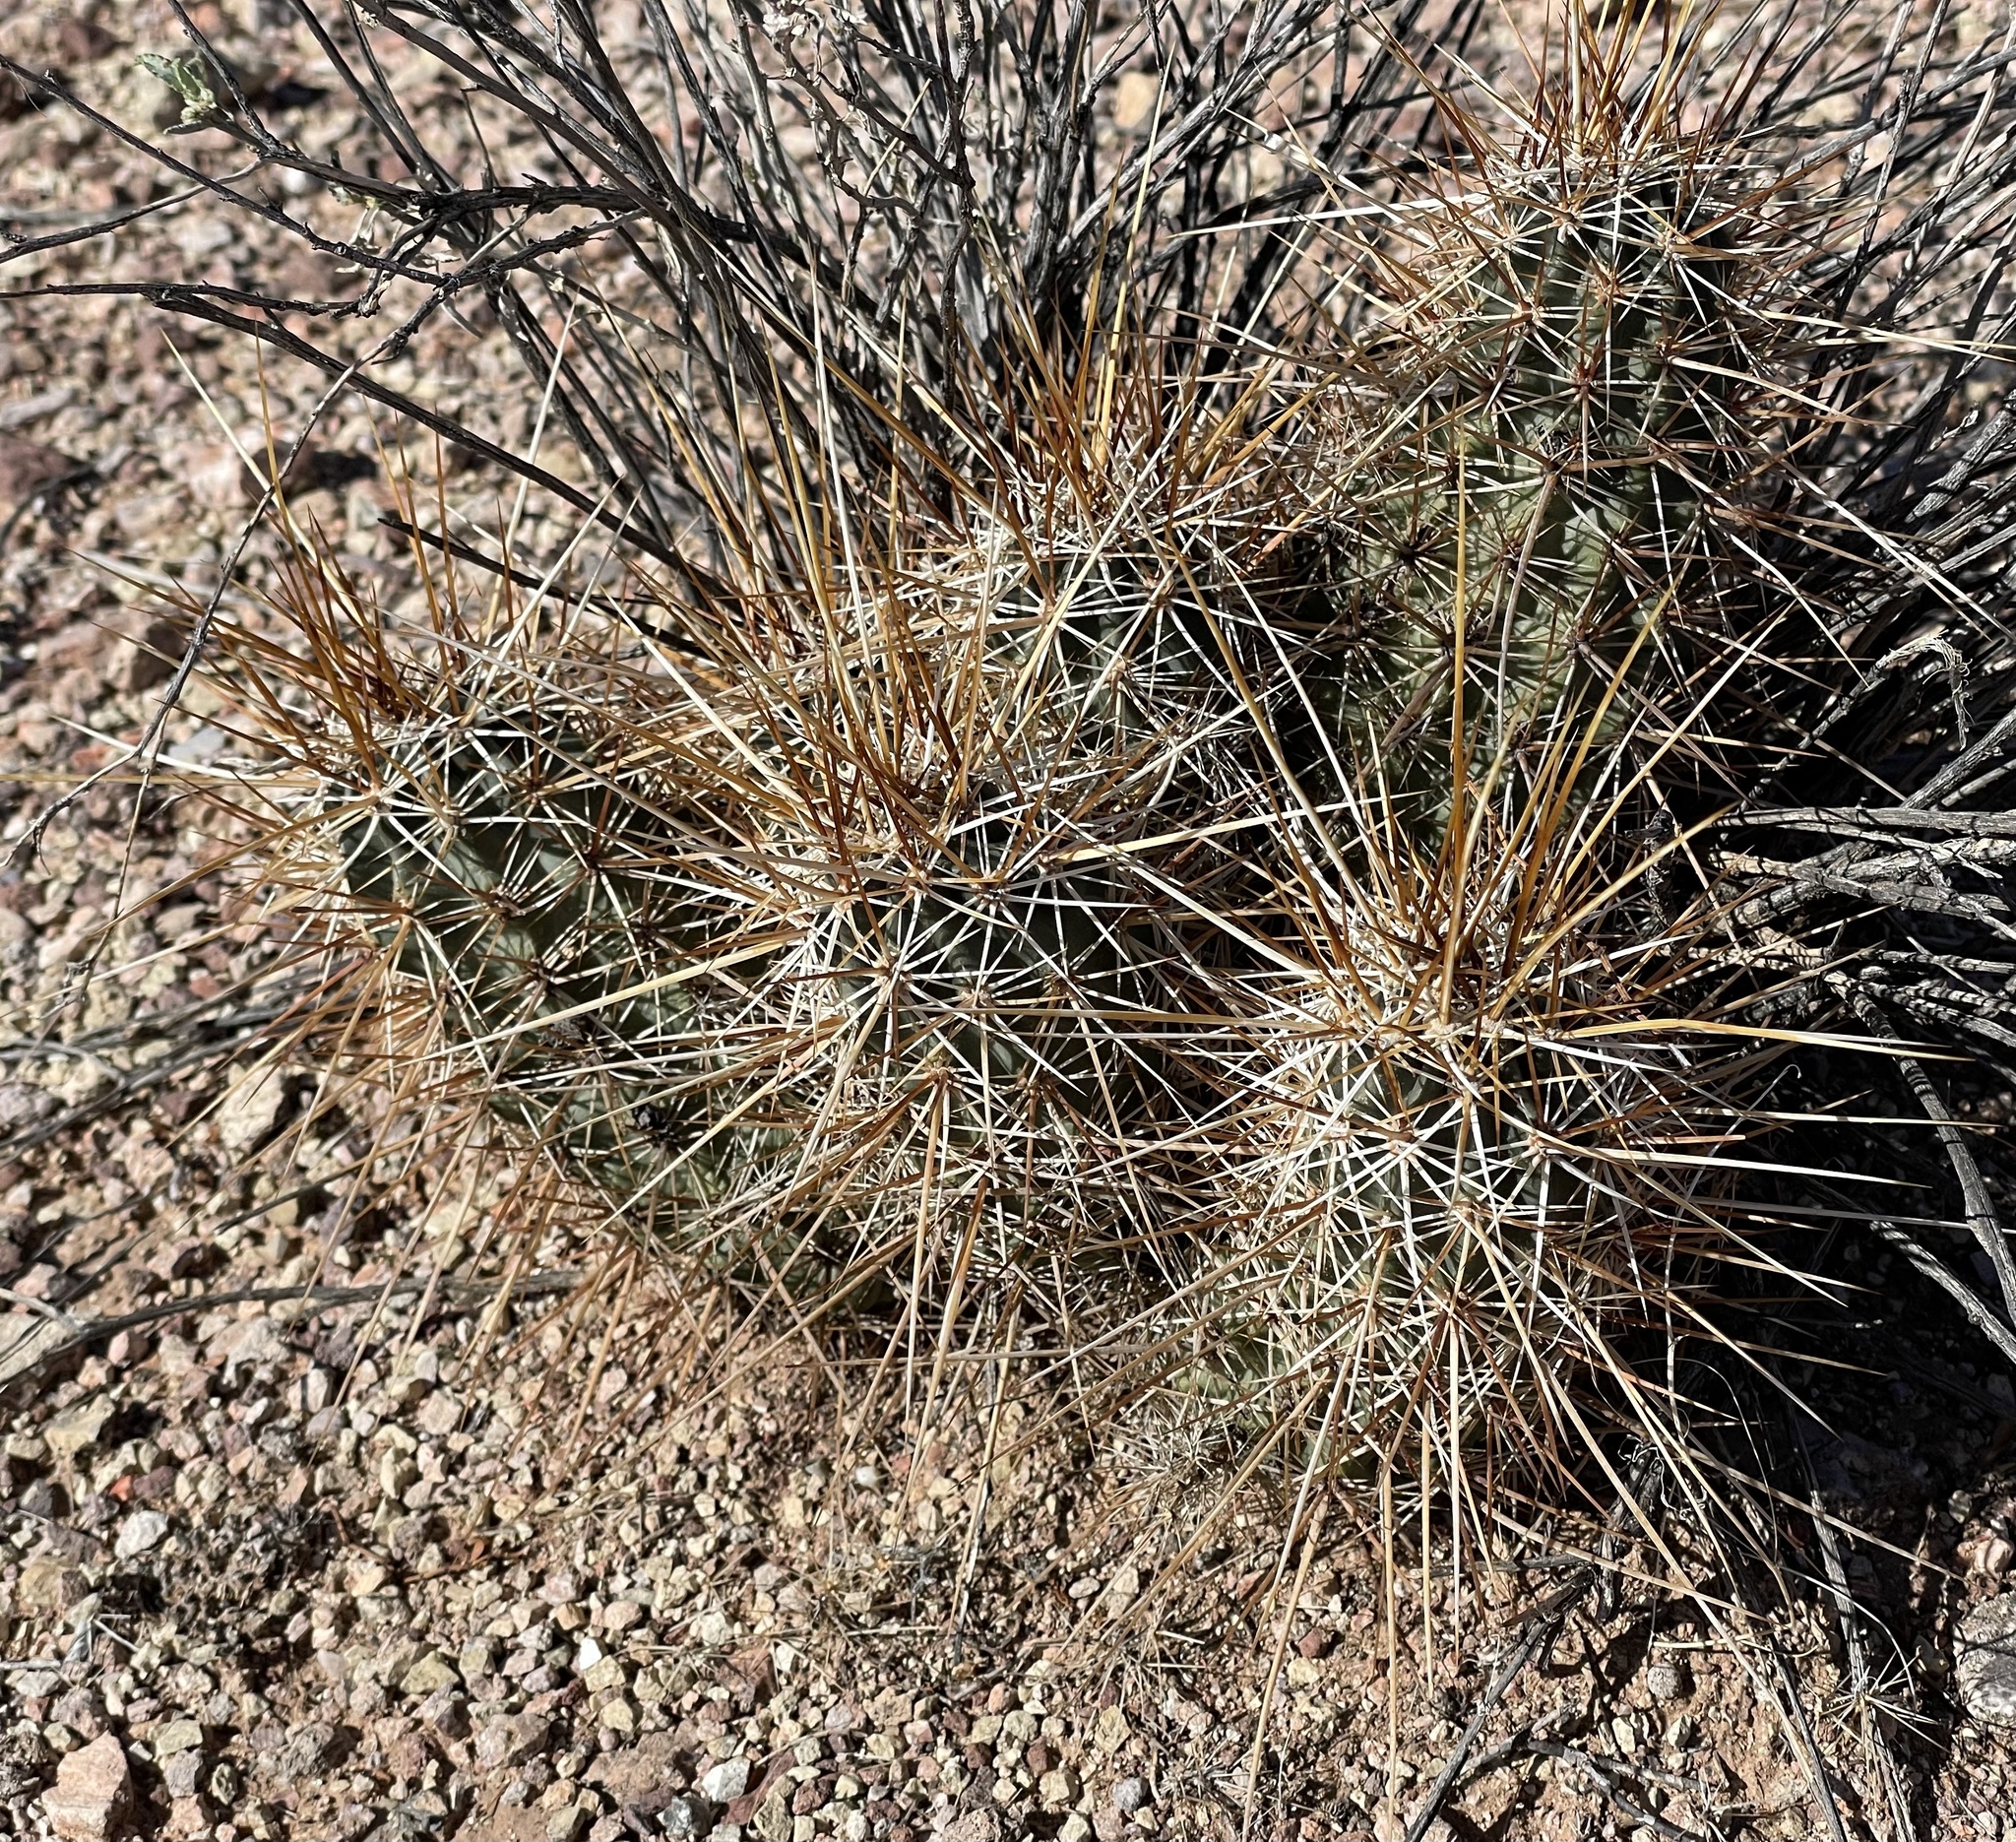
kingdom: Plantae
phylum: Tracheophyta
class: Magnoliopsida
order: Caryophyllales
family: Cactaceae
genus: Echinocereus
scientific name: Echinocereus engelmannii
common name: Engelmann's hedgehog cactus
